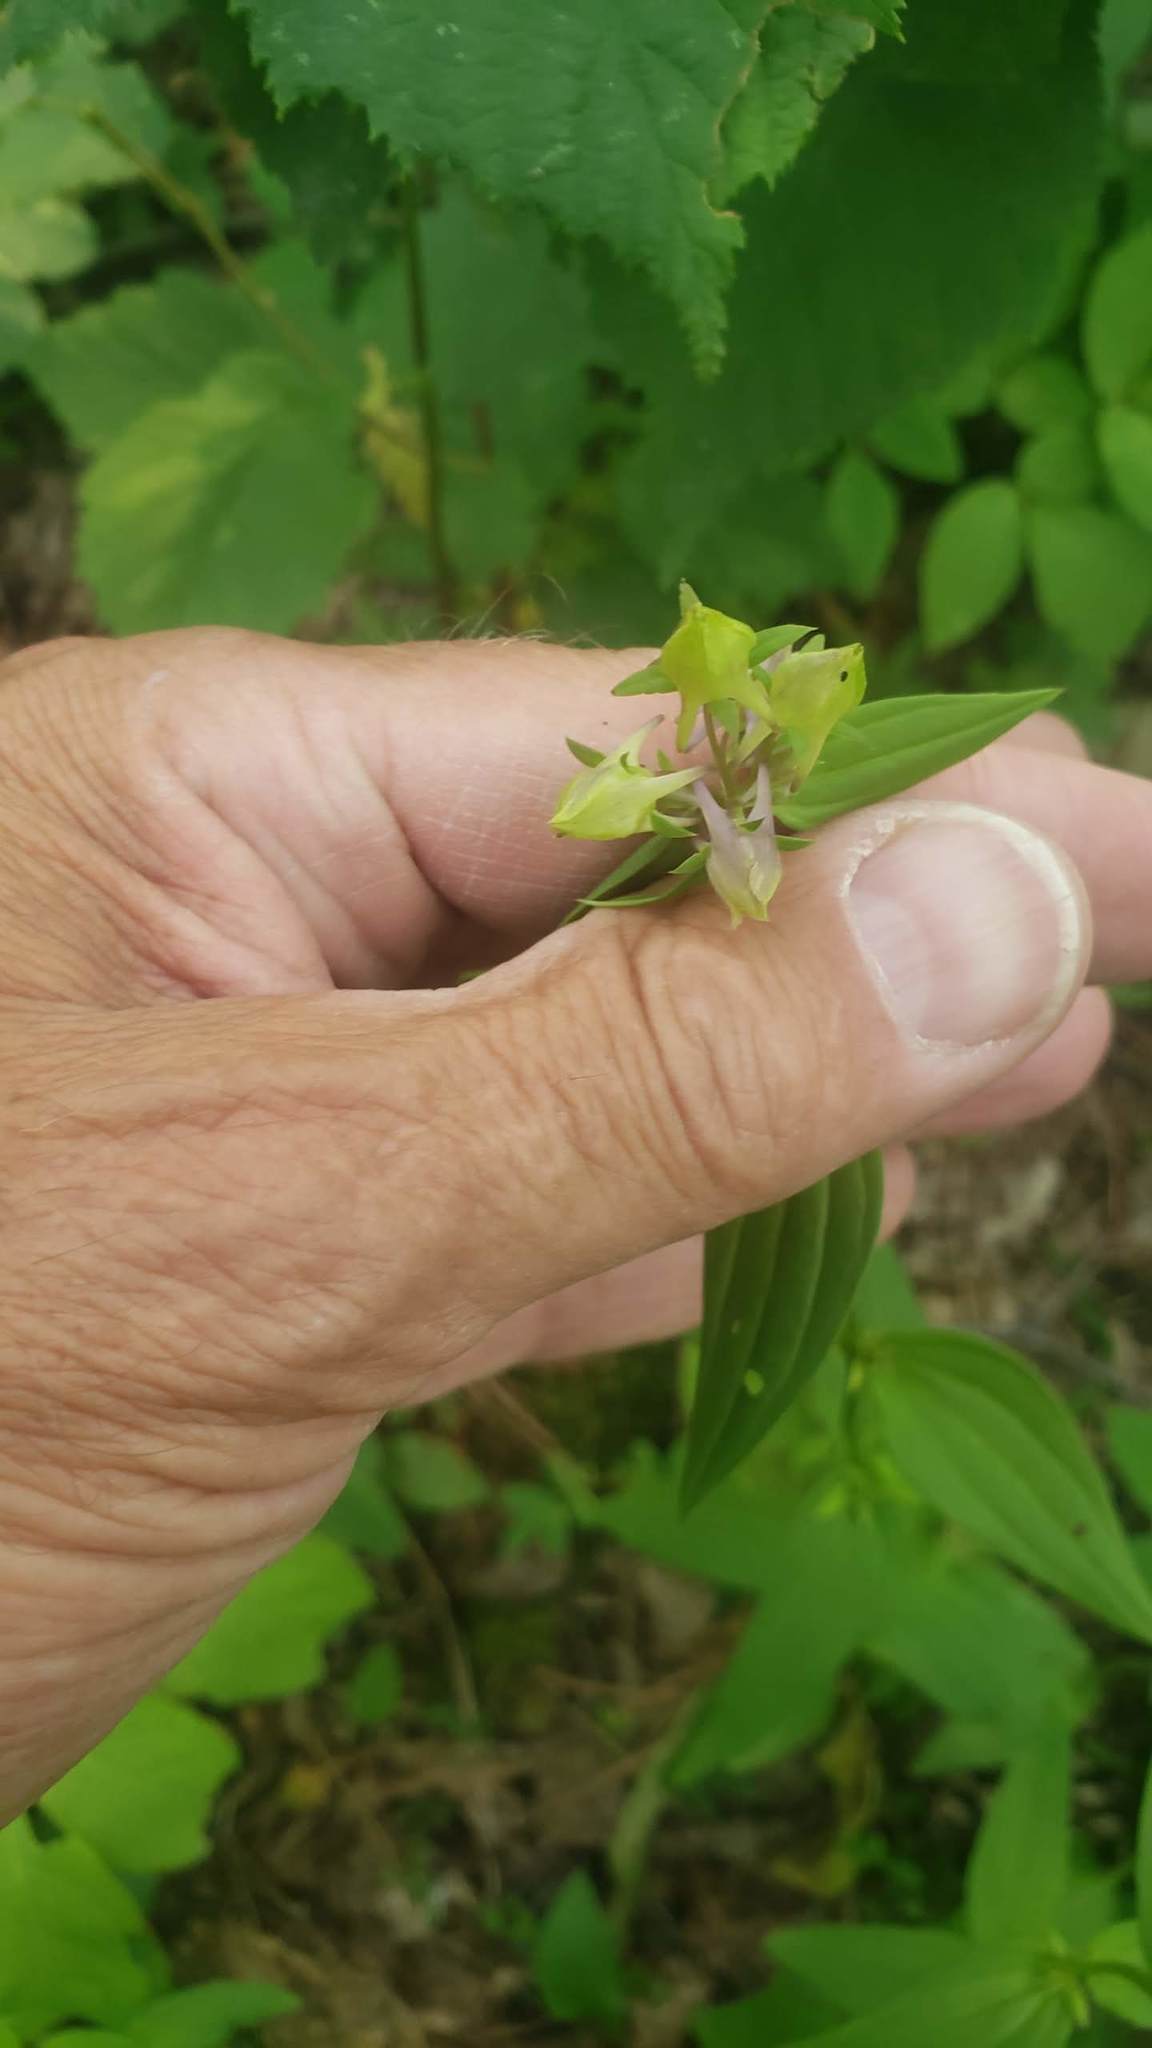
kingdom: Plantae
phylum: Tracheophyta
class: Magnoliopsida
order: Gentianales
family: Gentianaceae
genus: Halenia
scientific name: Halenia deflexa
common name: American spurred gentian
